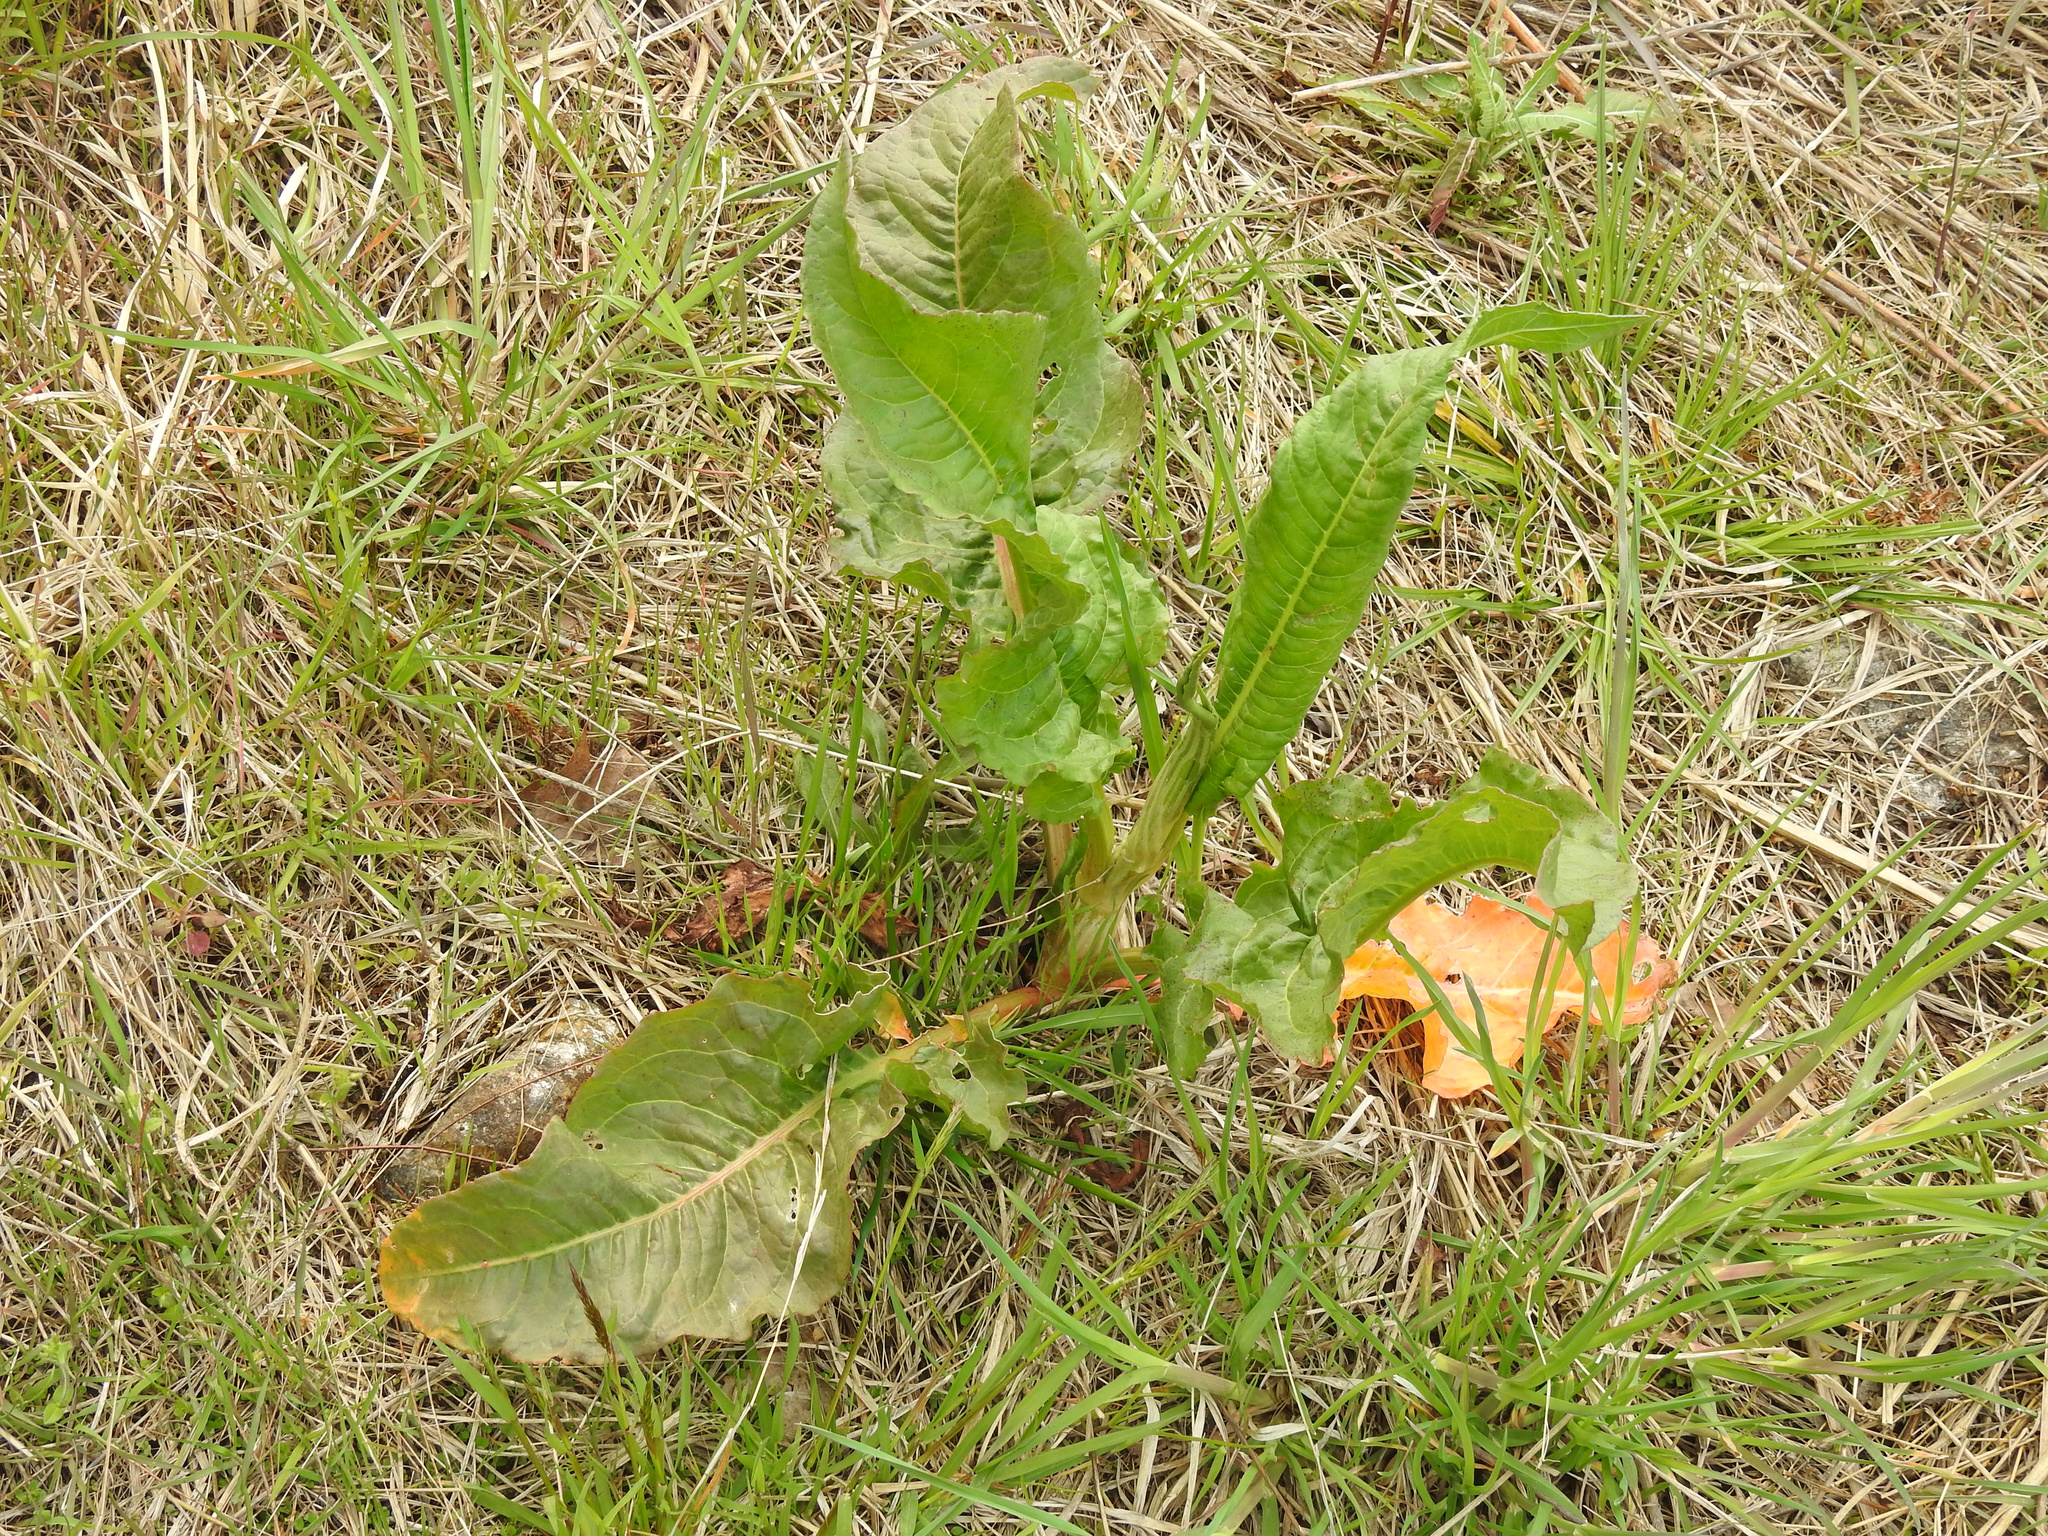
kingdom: Plantae
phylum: Tracheophyta
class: Magnoliopsida
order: Caryophyllales
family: Polygonaceae
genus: Rumex
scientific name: Rumex crispus
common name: Curled dock
